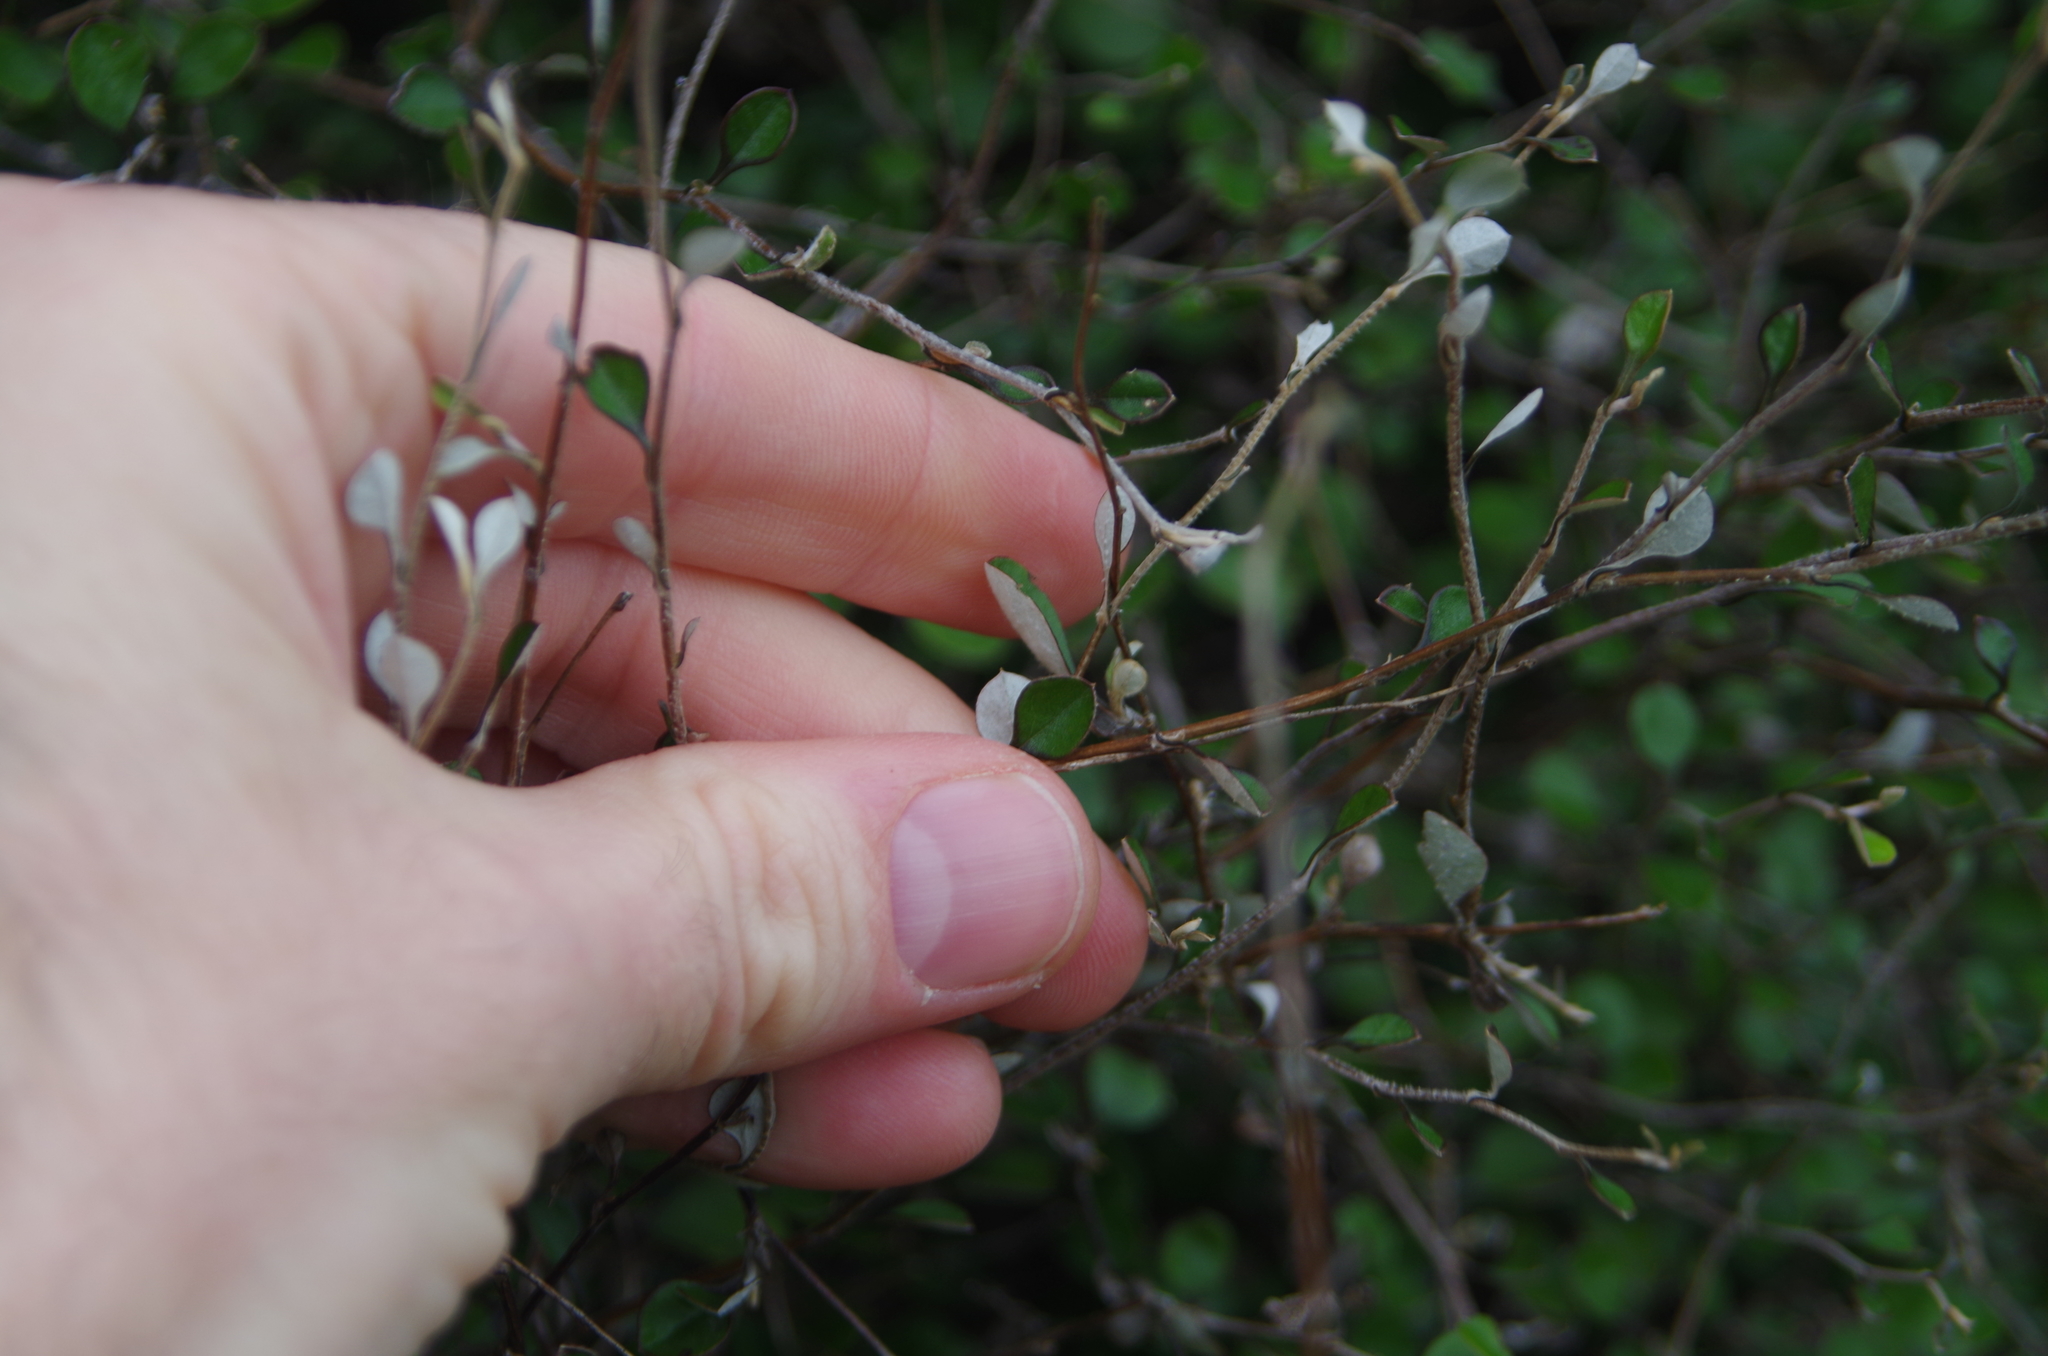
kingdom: Plantae
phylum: Tracheophyta
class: Magnoliopsida
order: Asterales
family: Asteraceae
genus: Ozothamnus
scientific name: Ozothamnus glomeratus
